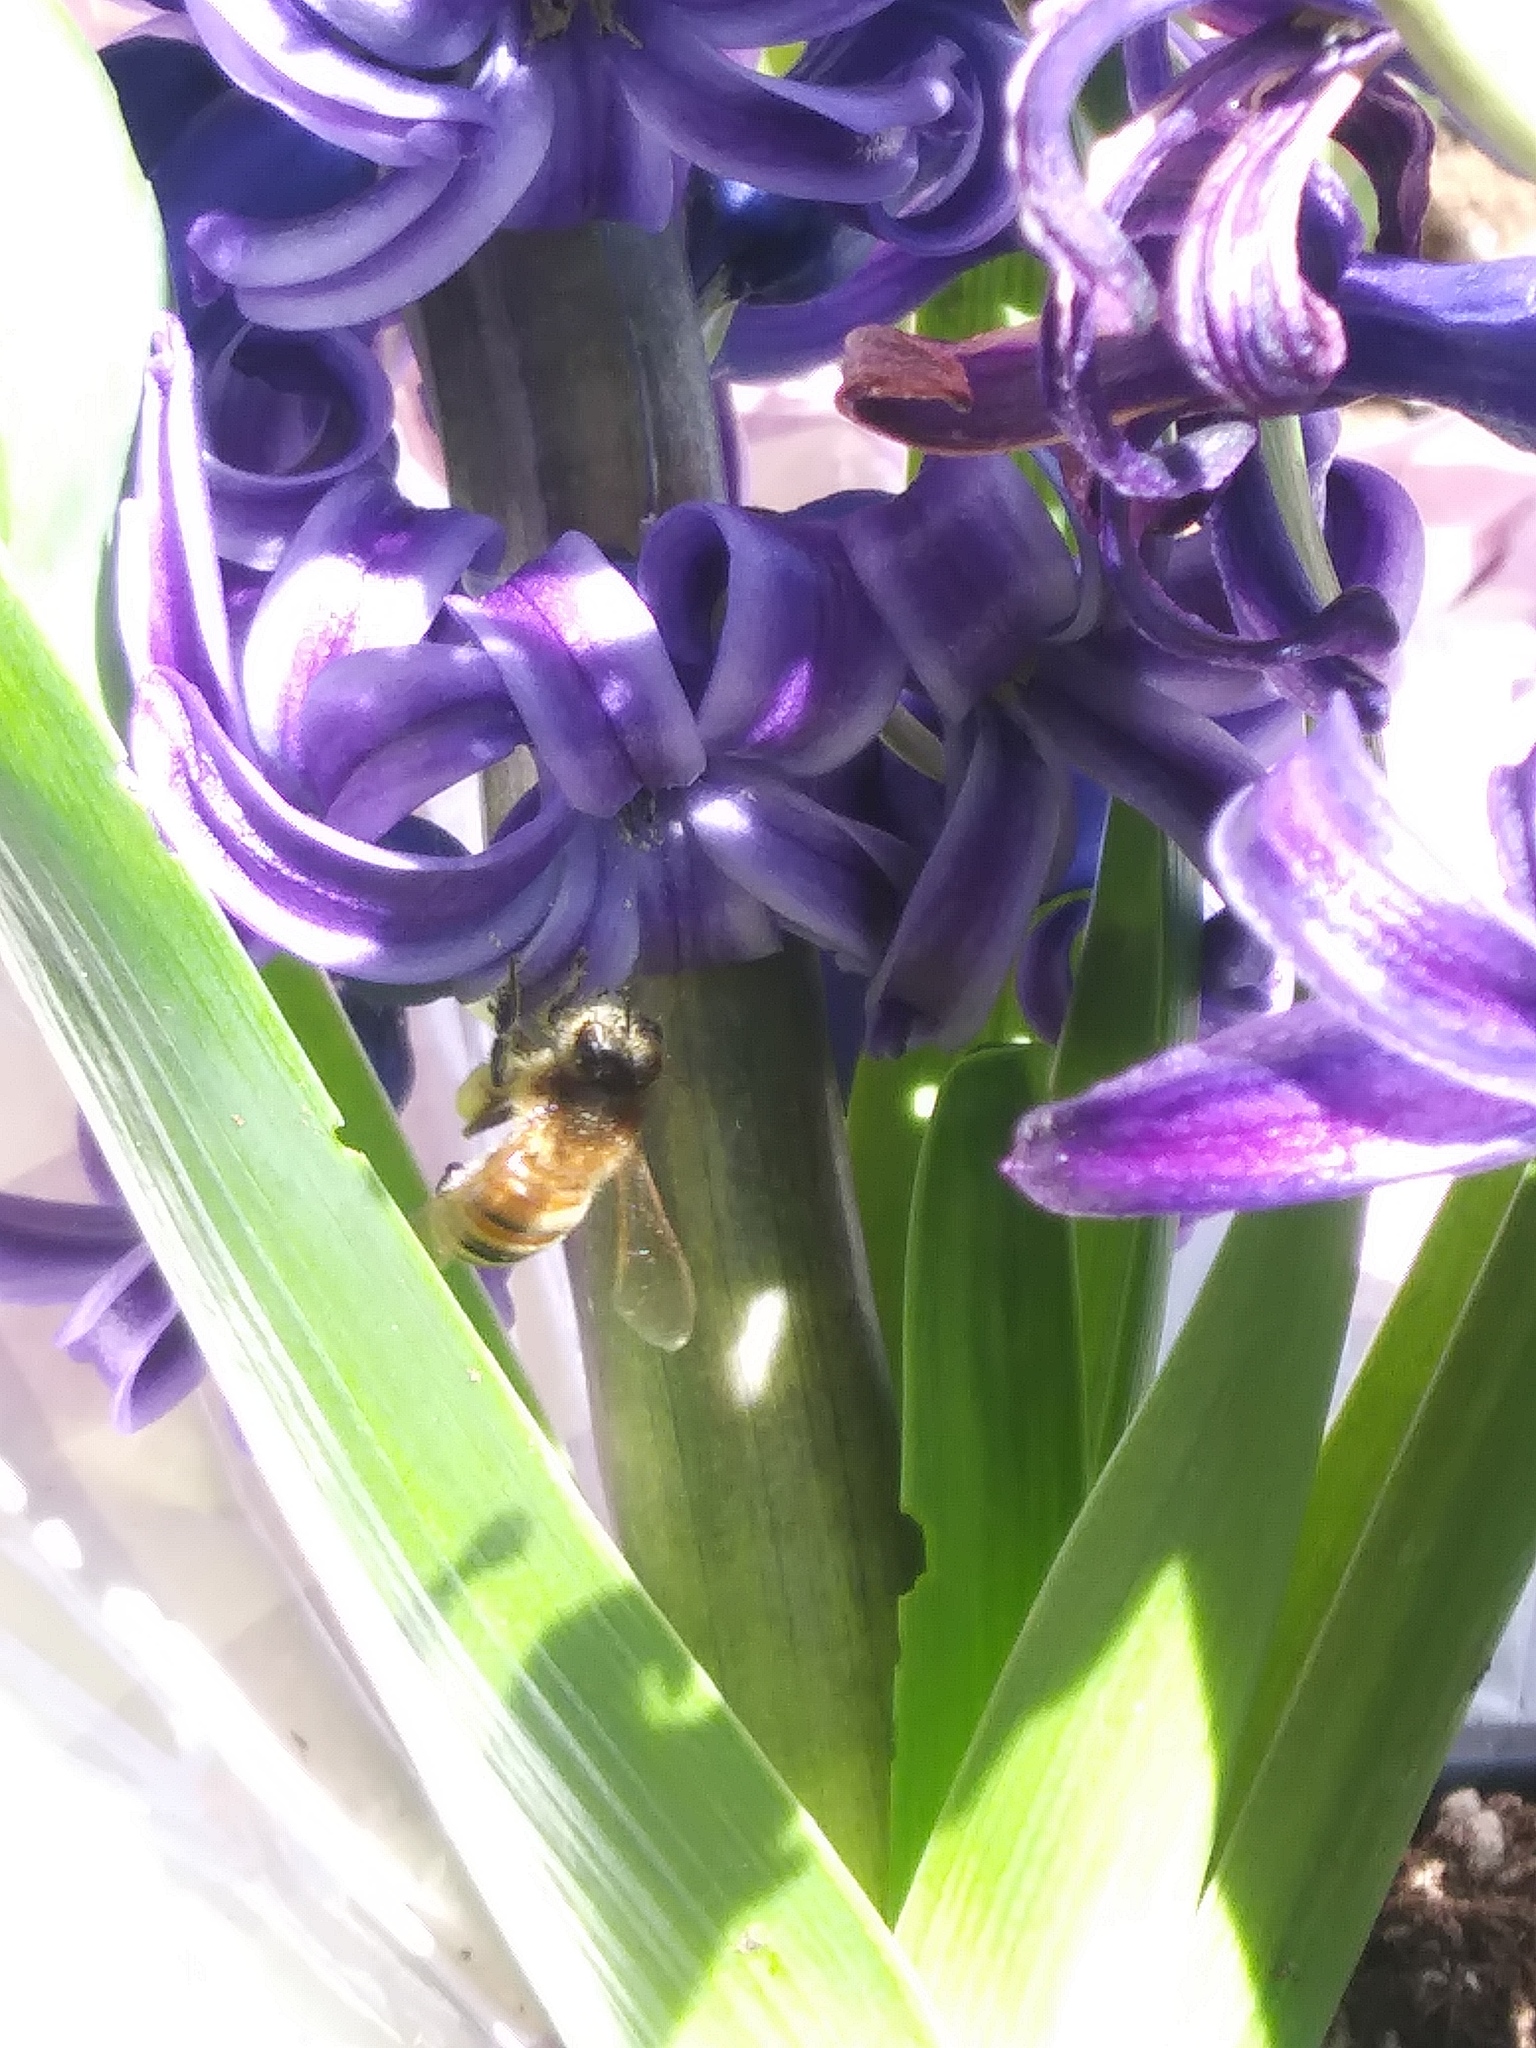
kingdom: Animalia
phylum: Arthropoda
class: Insecta
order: Hymenoptera
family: Apidae
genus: Apis
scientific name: Apis mellifera
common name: Honey bee
